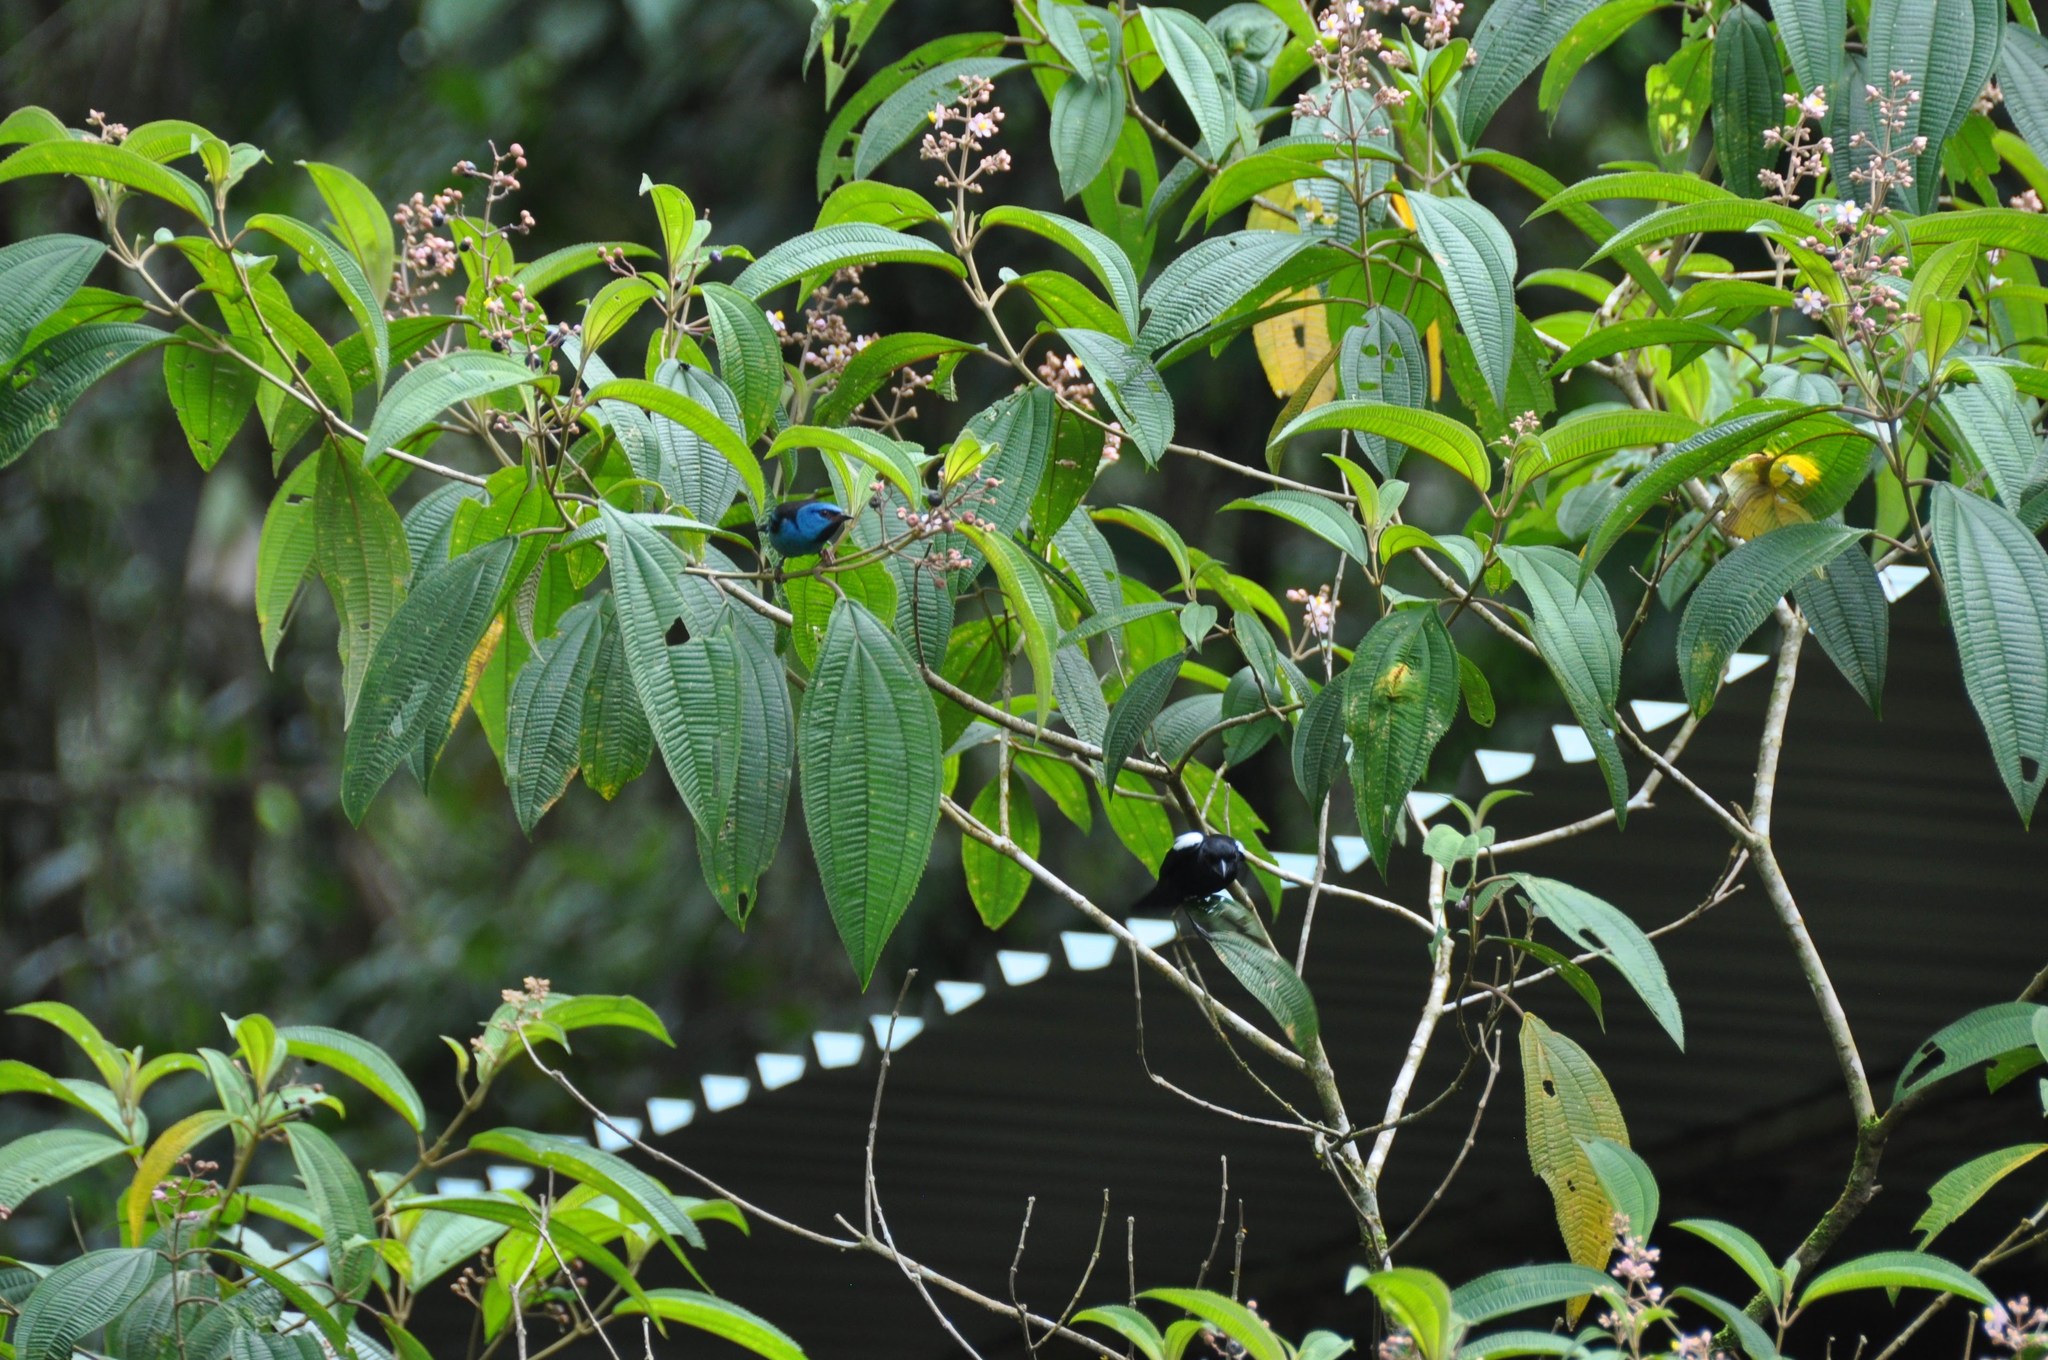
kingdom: Animalia
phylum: Chordata
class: Aves
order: Passeriformes
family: Thraupidae
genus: Dacnis
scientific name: Dacnis cayana
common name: Blue dacnis
